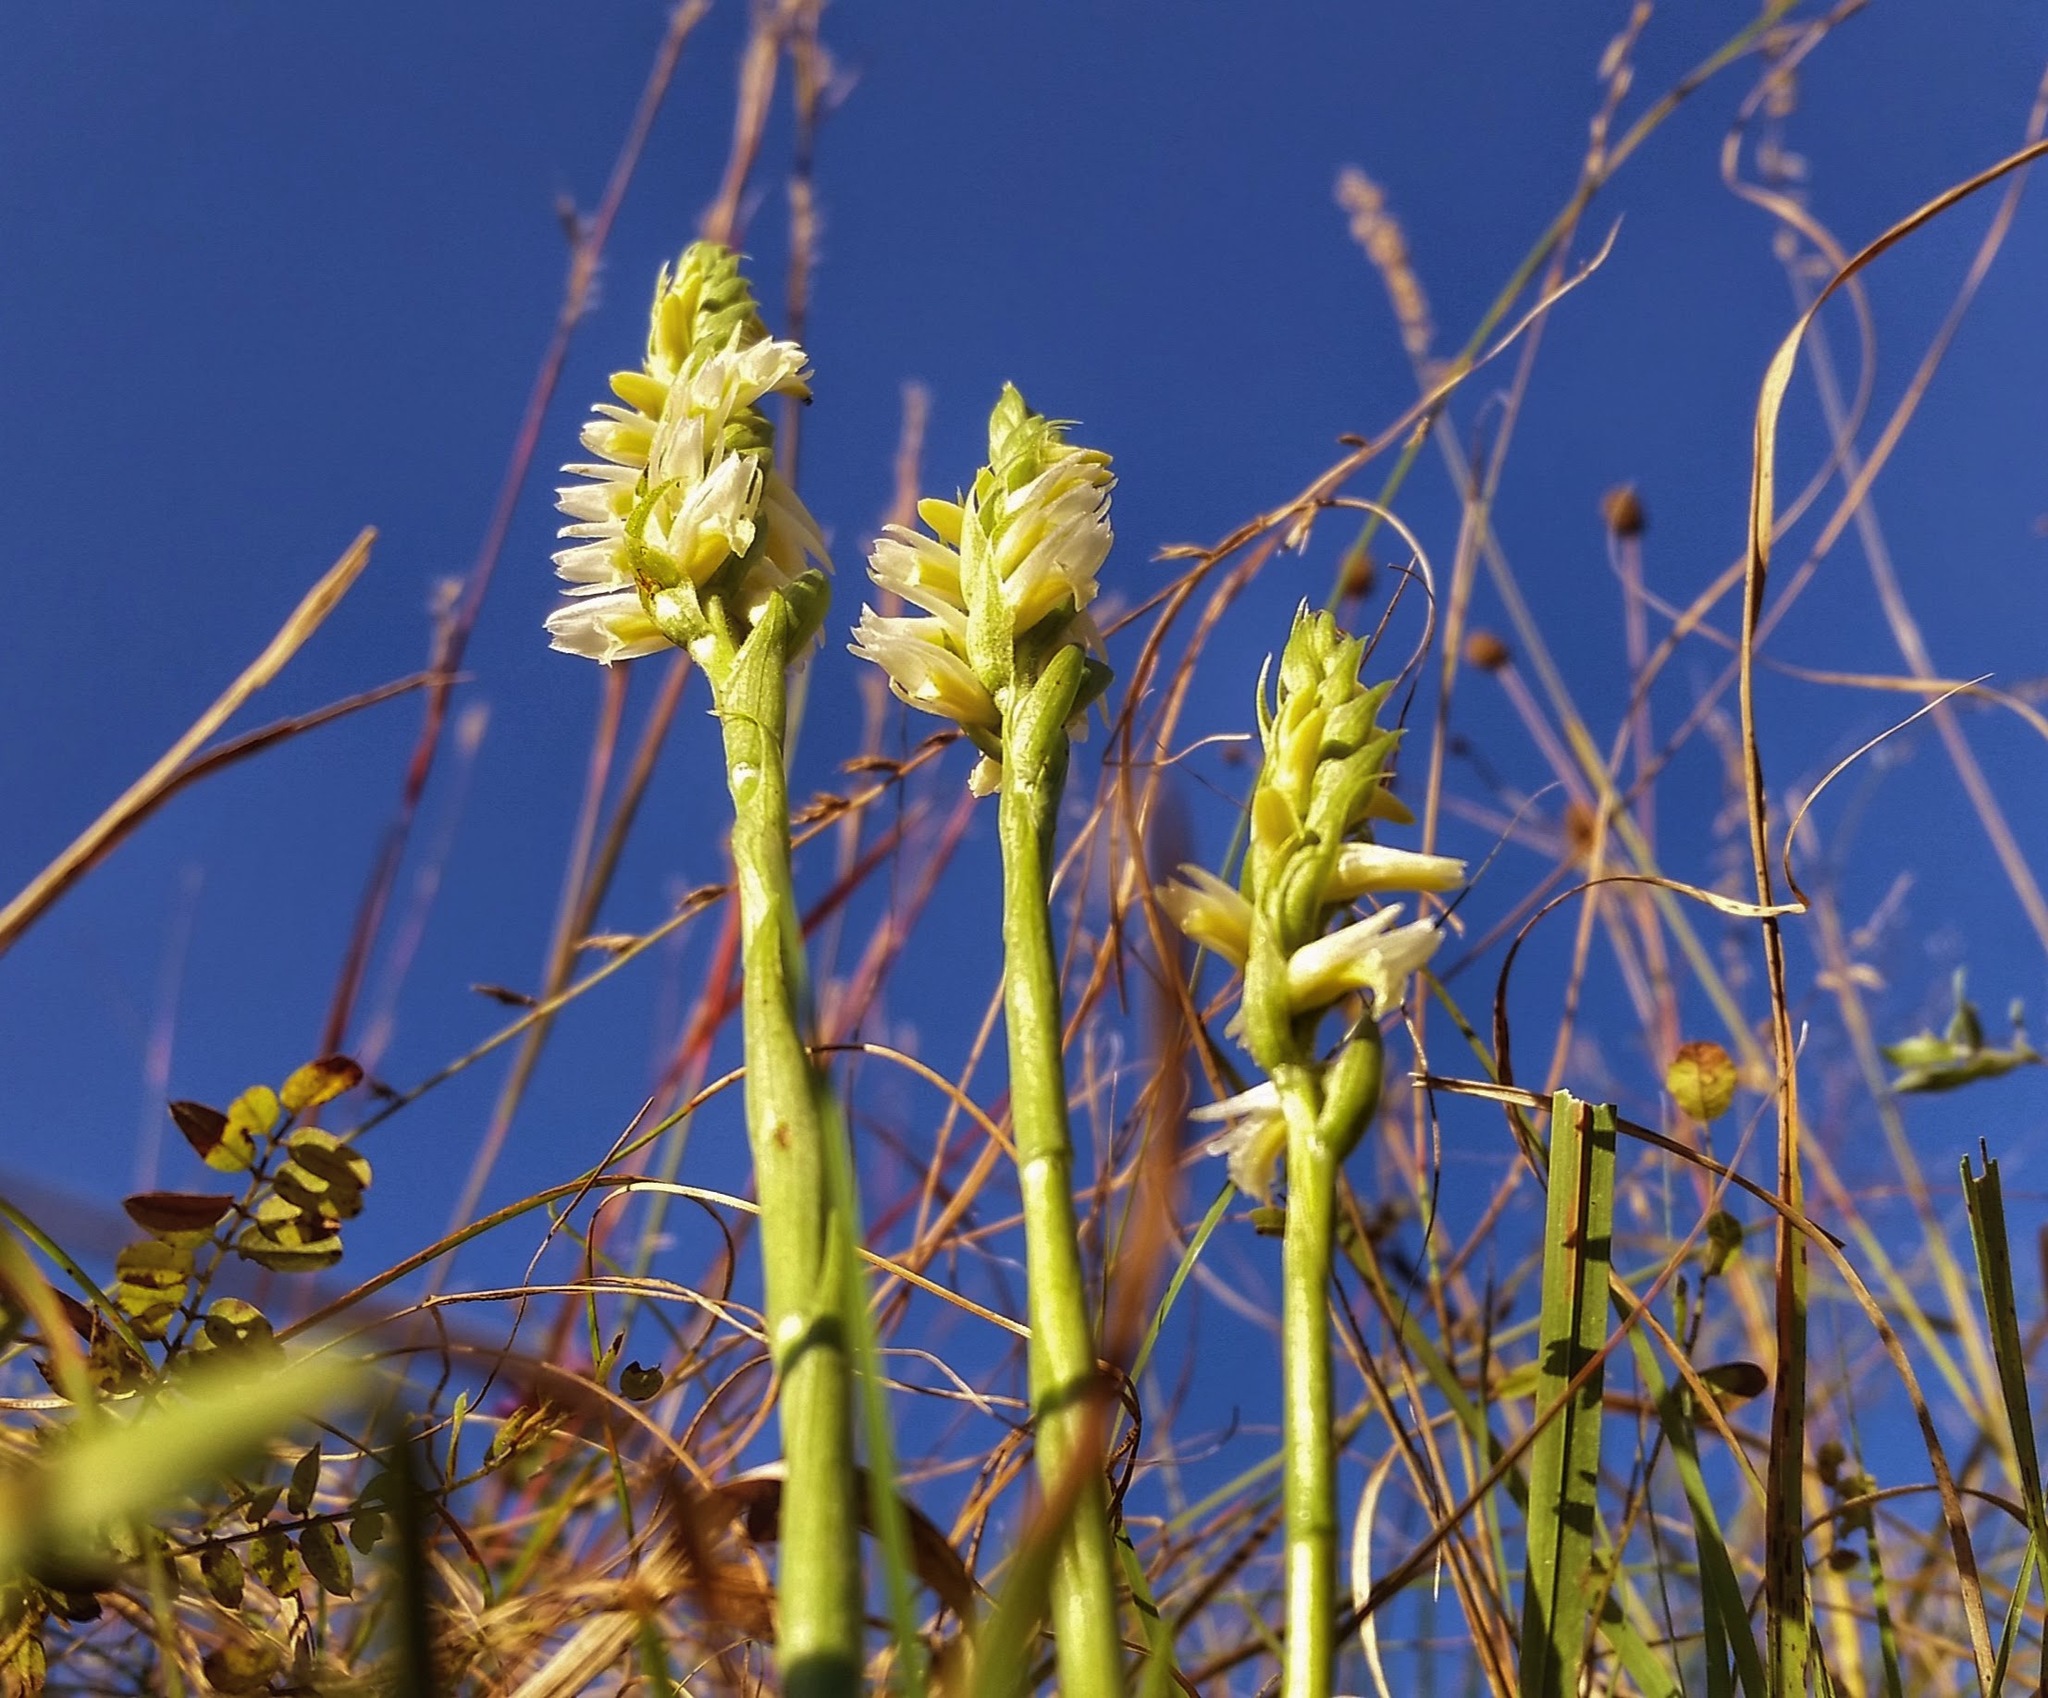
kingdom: Plantae
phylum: Tracheophyta
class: Liliopsida
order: Asparagales
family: Orchidaceae
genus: Spiranthes
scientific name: Spiranthes magnicamporum
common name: Great plains ladies'-tresses
